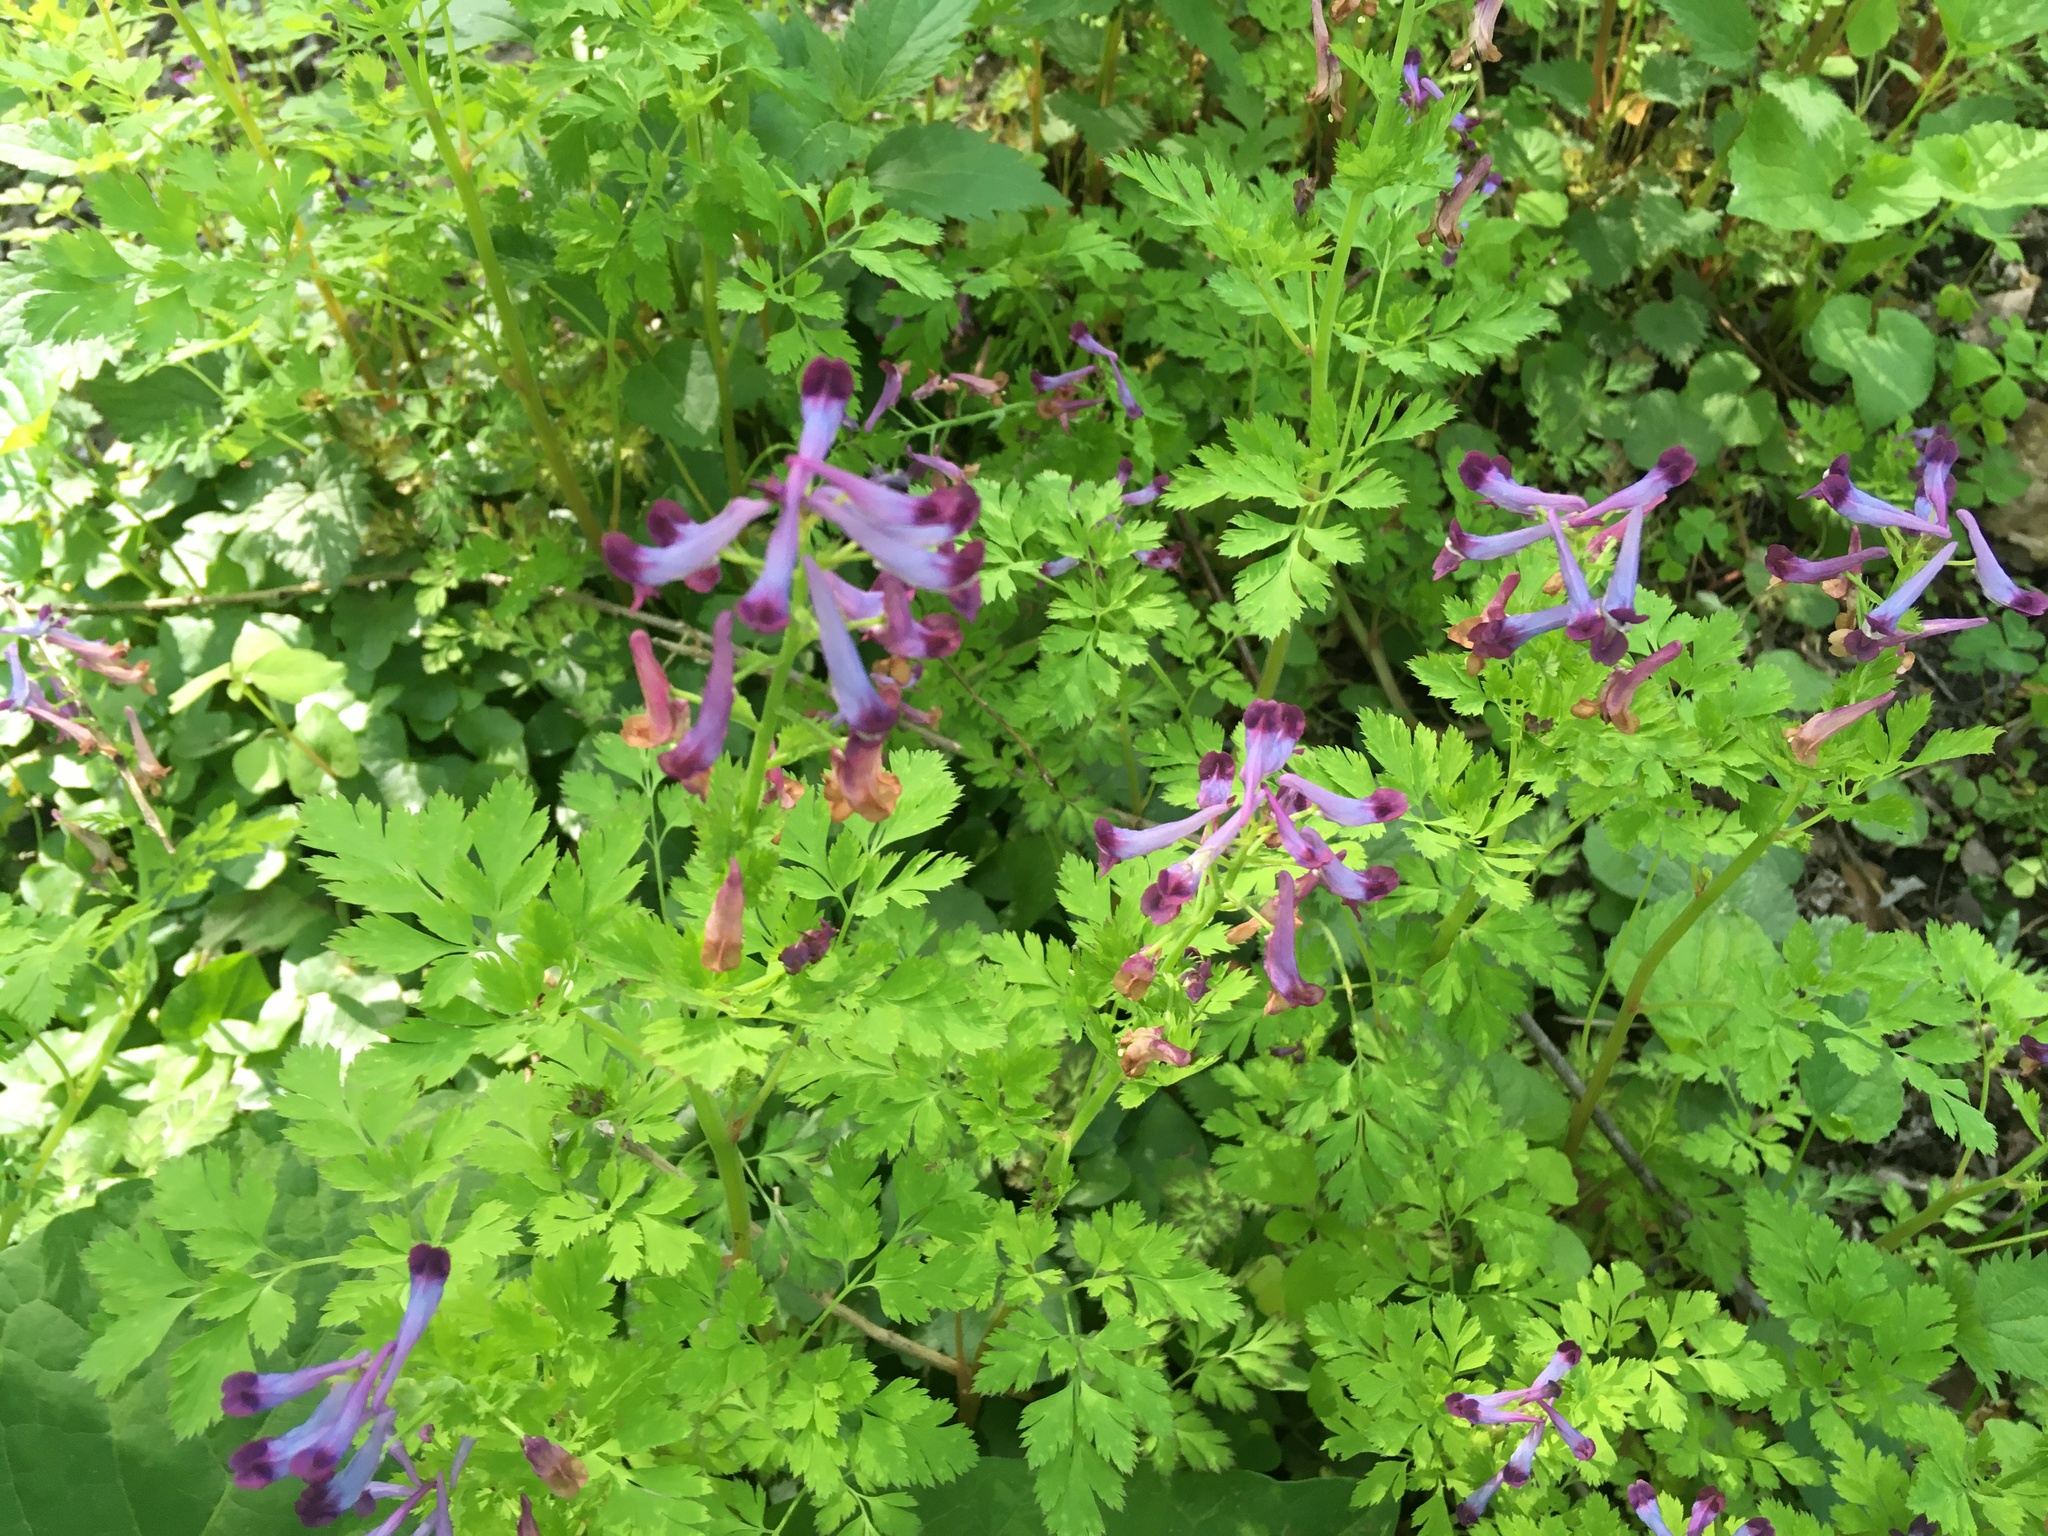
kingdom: Plantae
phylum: Tracheophyta
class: Magnoliopsida
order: Ranunculales
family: Papaveraceae
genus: Corydalis
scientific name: Corydalis incisa
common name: Incised fumewort
